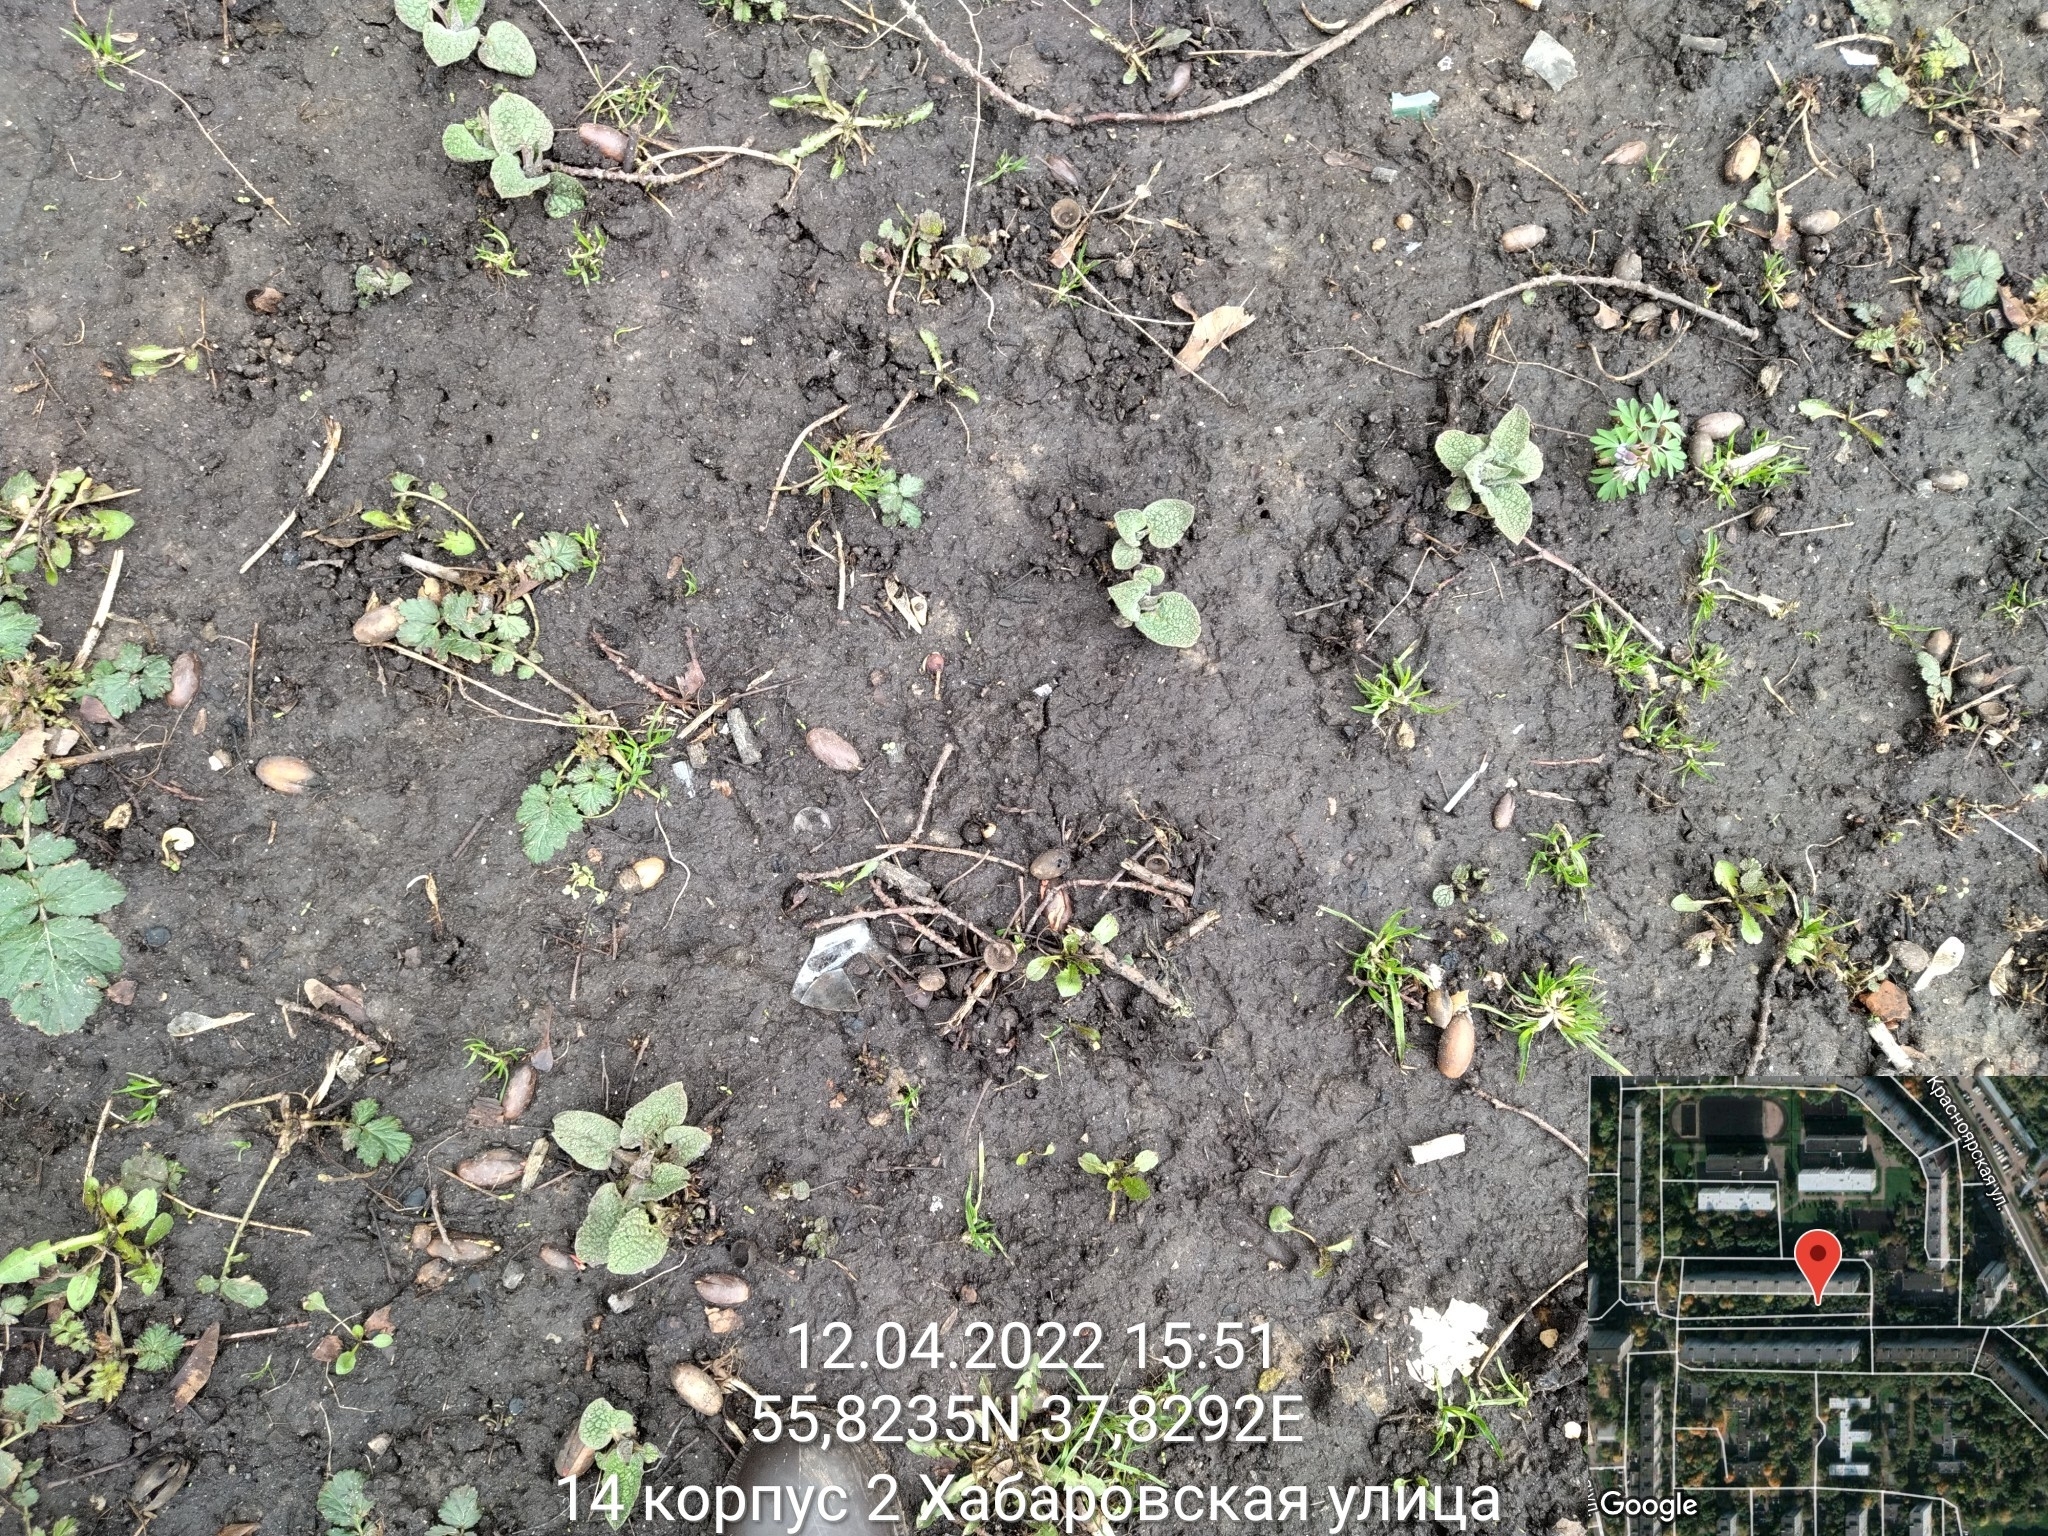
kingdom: Plantae
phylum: Tracheophyta
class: Magnoliopsida
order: Boraginales
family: Boraginaceae
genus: Symphytum
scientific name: Symphytum caucasicum
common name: Caucasian comfrey
